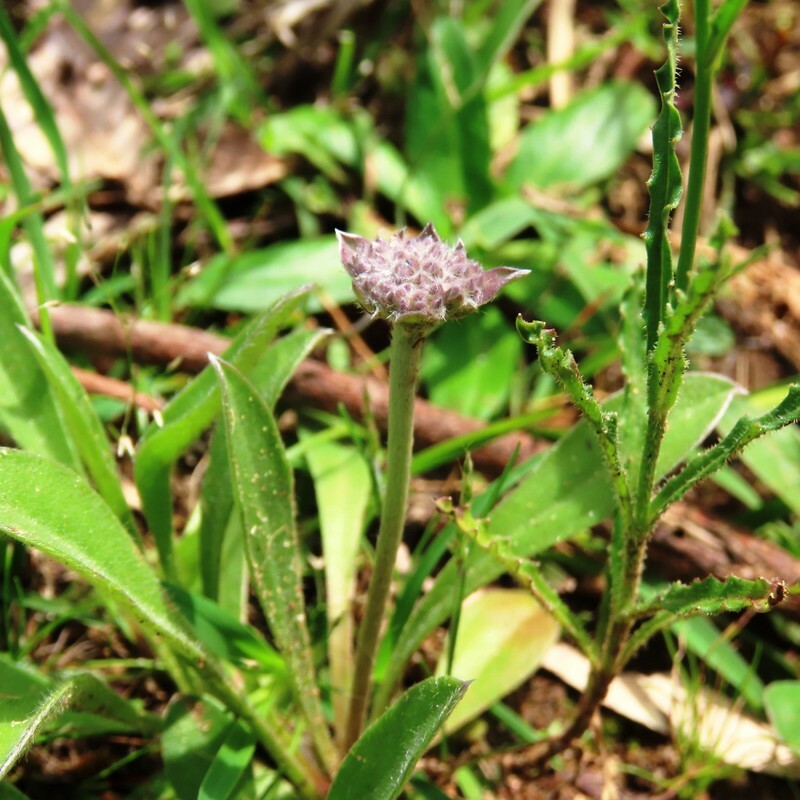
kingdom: Plantae
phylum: Tracheophyta
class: Magnoliopsida
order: Asterales
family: Goodeniaceae
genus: Brunonia
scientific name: Brunonia australis
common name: Blue pincushion
